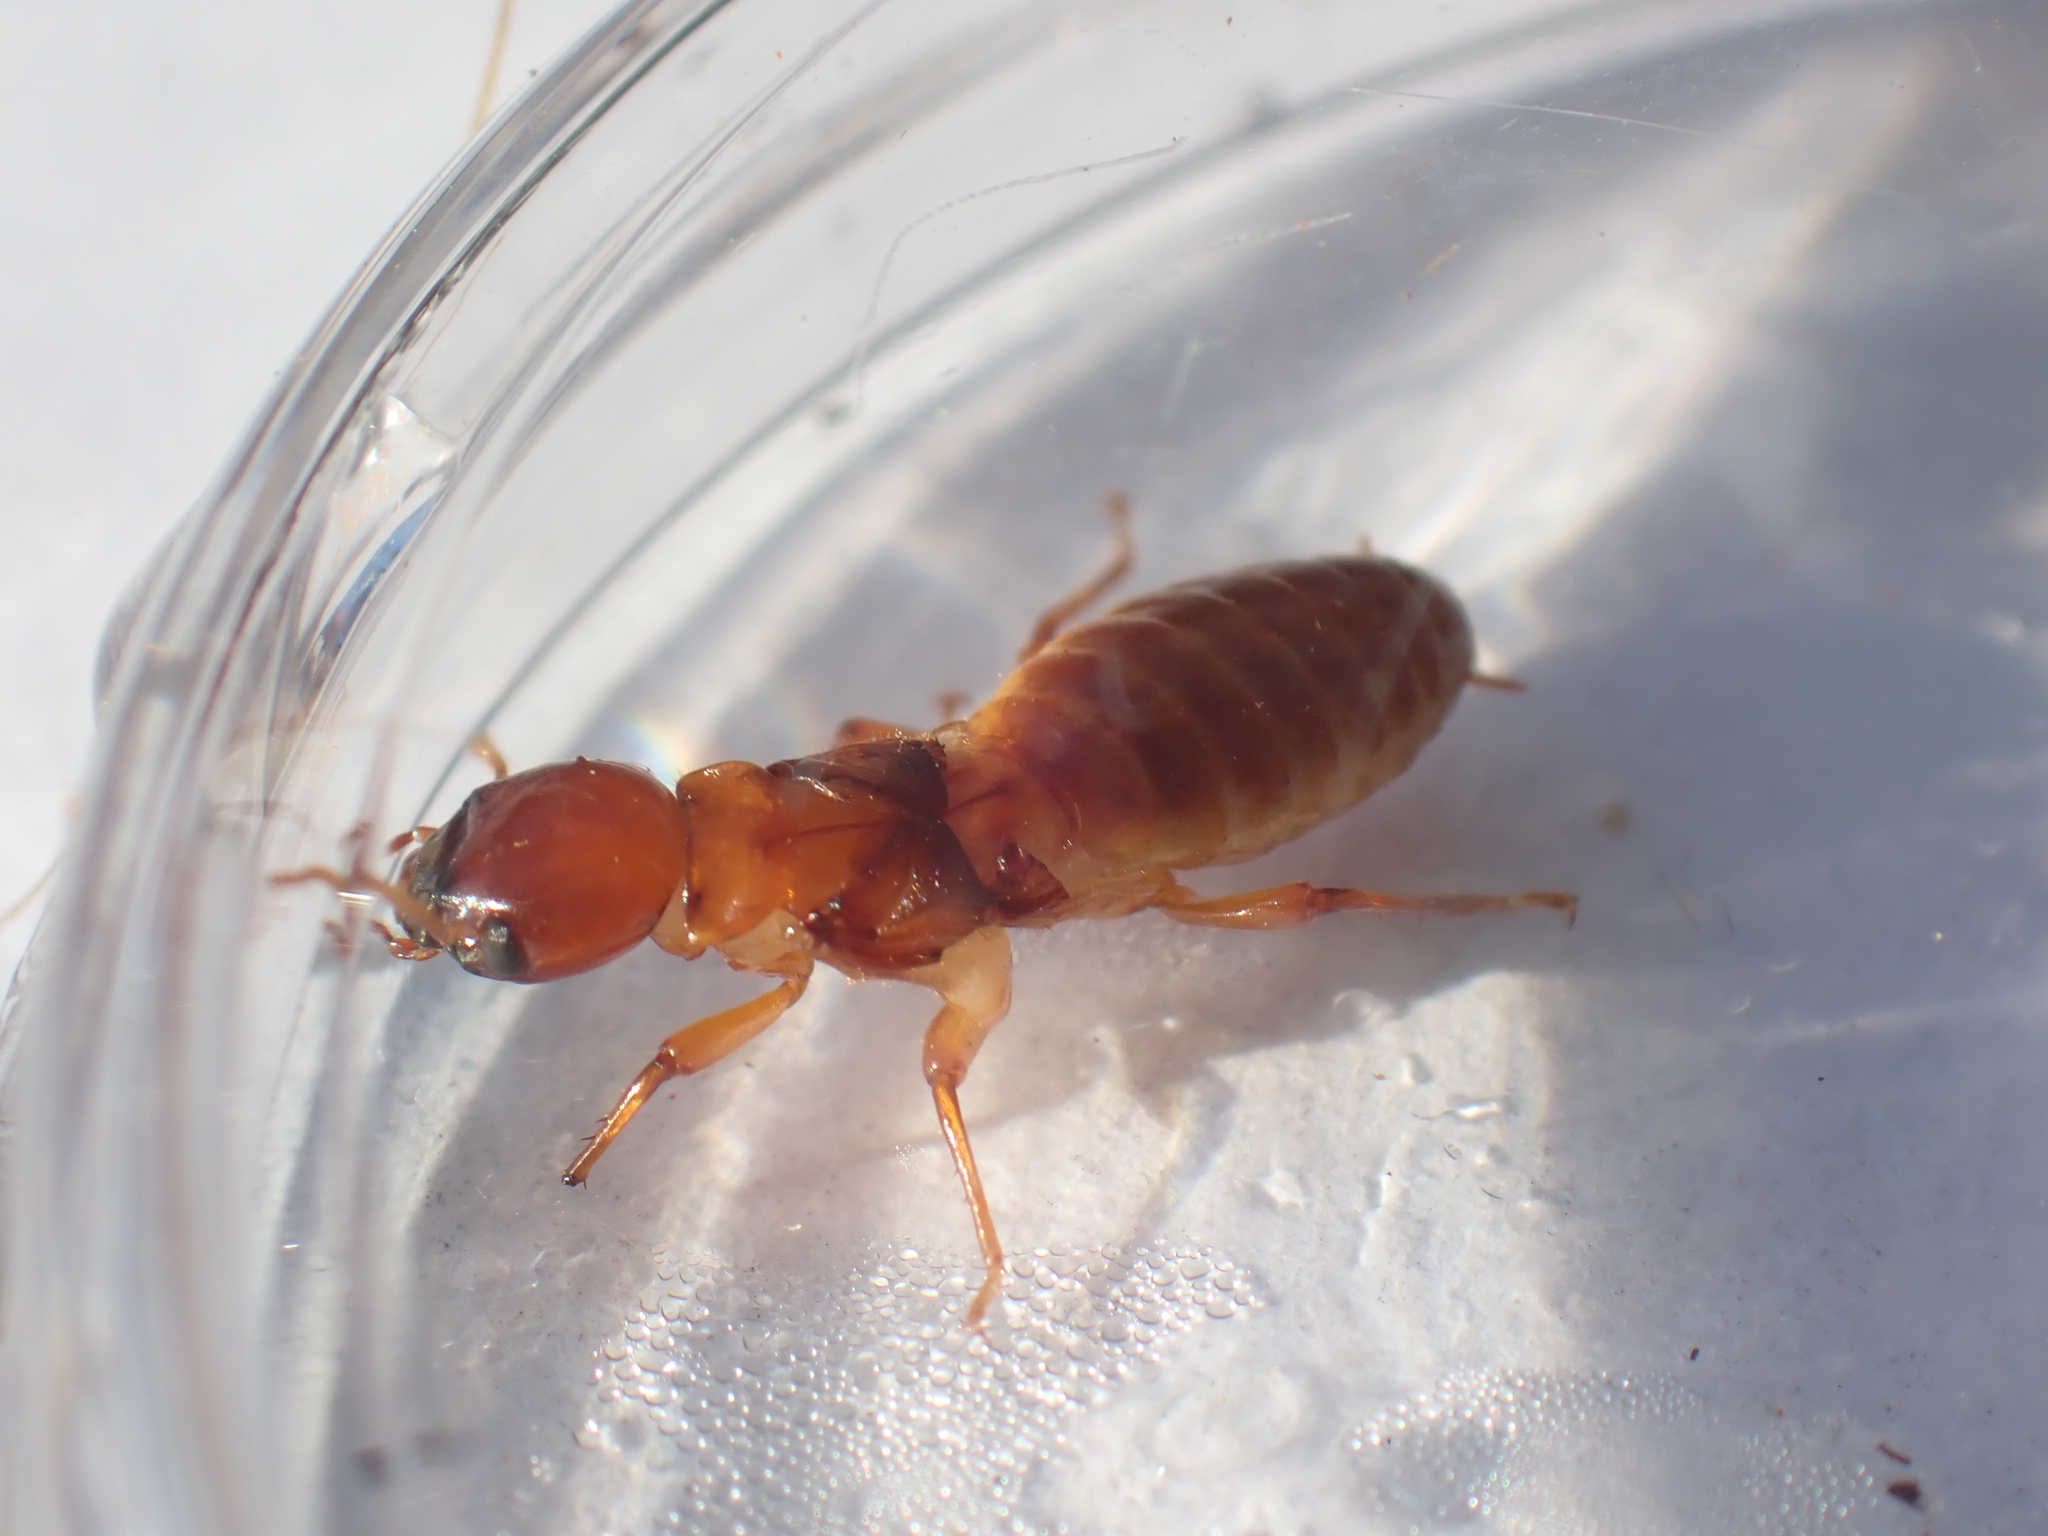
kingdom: Animalia
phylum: Arthropoda
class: Insecta
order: Blattodea
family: Archotermopsidae
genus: Zootermopsis
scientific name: Zootermopsis angusticollis
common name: Rottenwood termite
